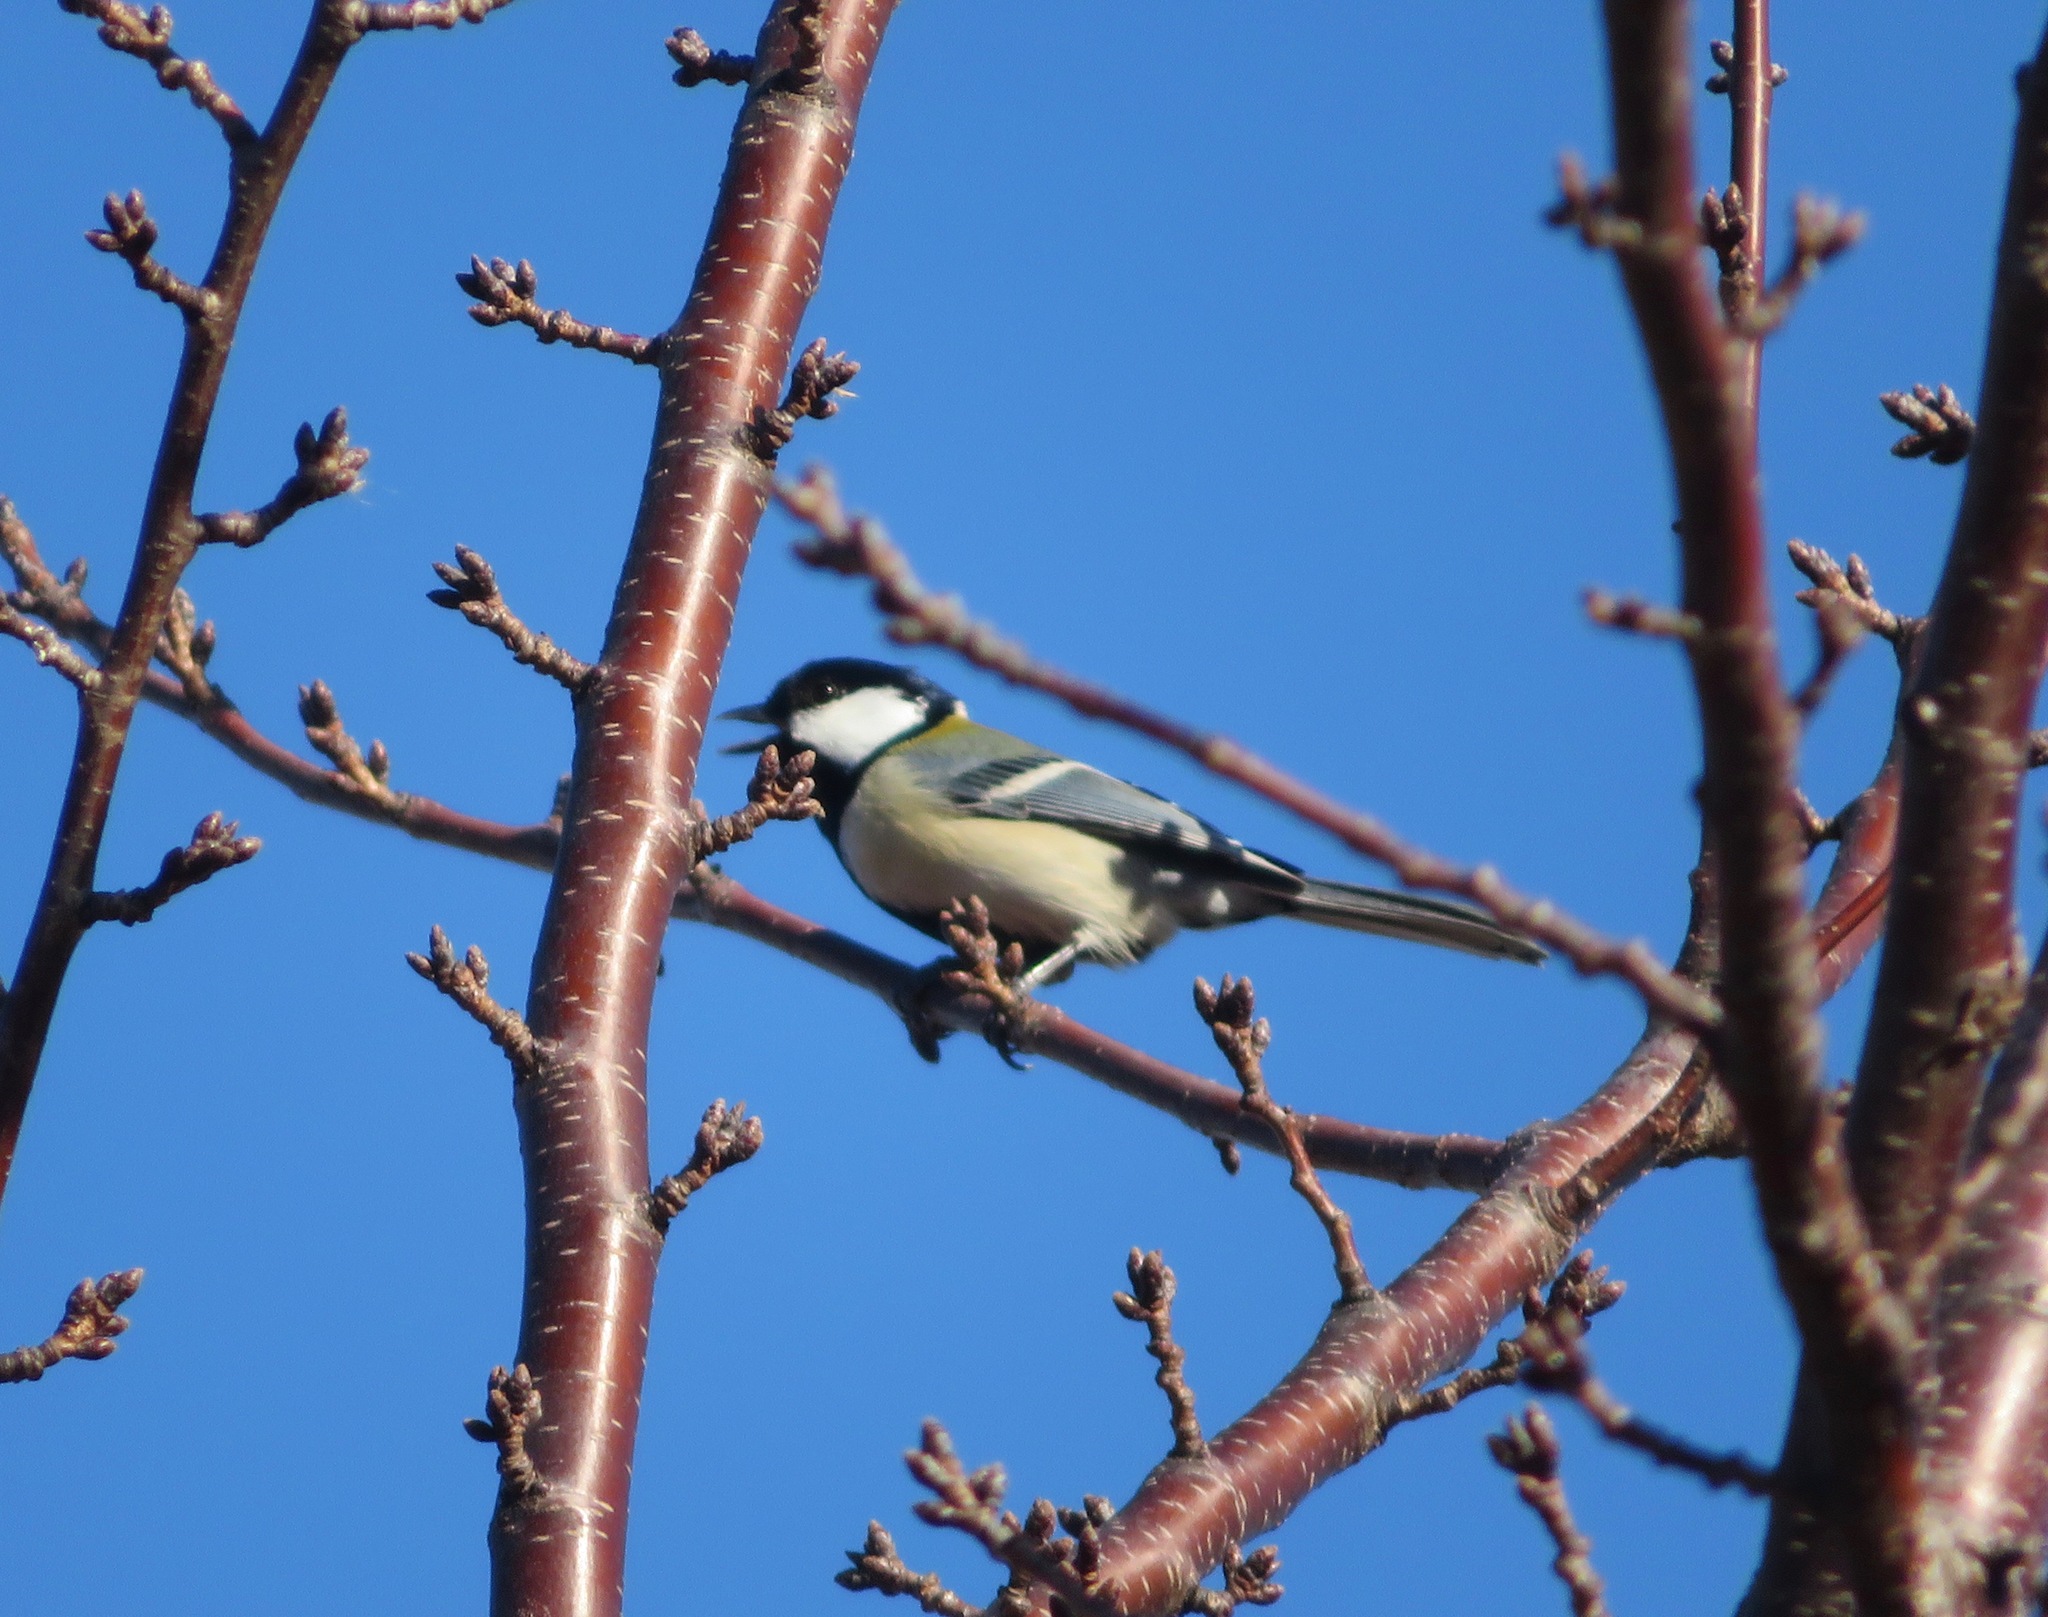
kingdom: Animalia
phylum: Chordata
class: Aves
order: Passeriformes
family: Paridae
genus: Parus
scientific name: Parus minor
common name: Japanese tit
